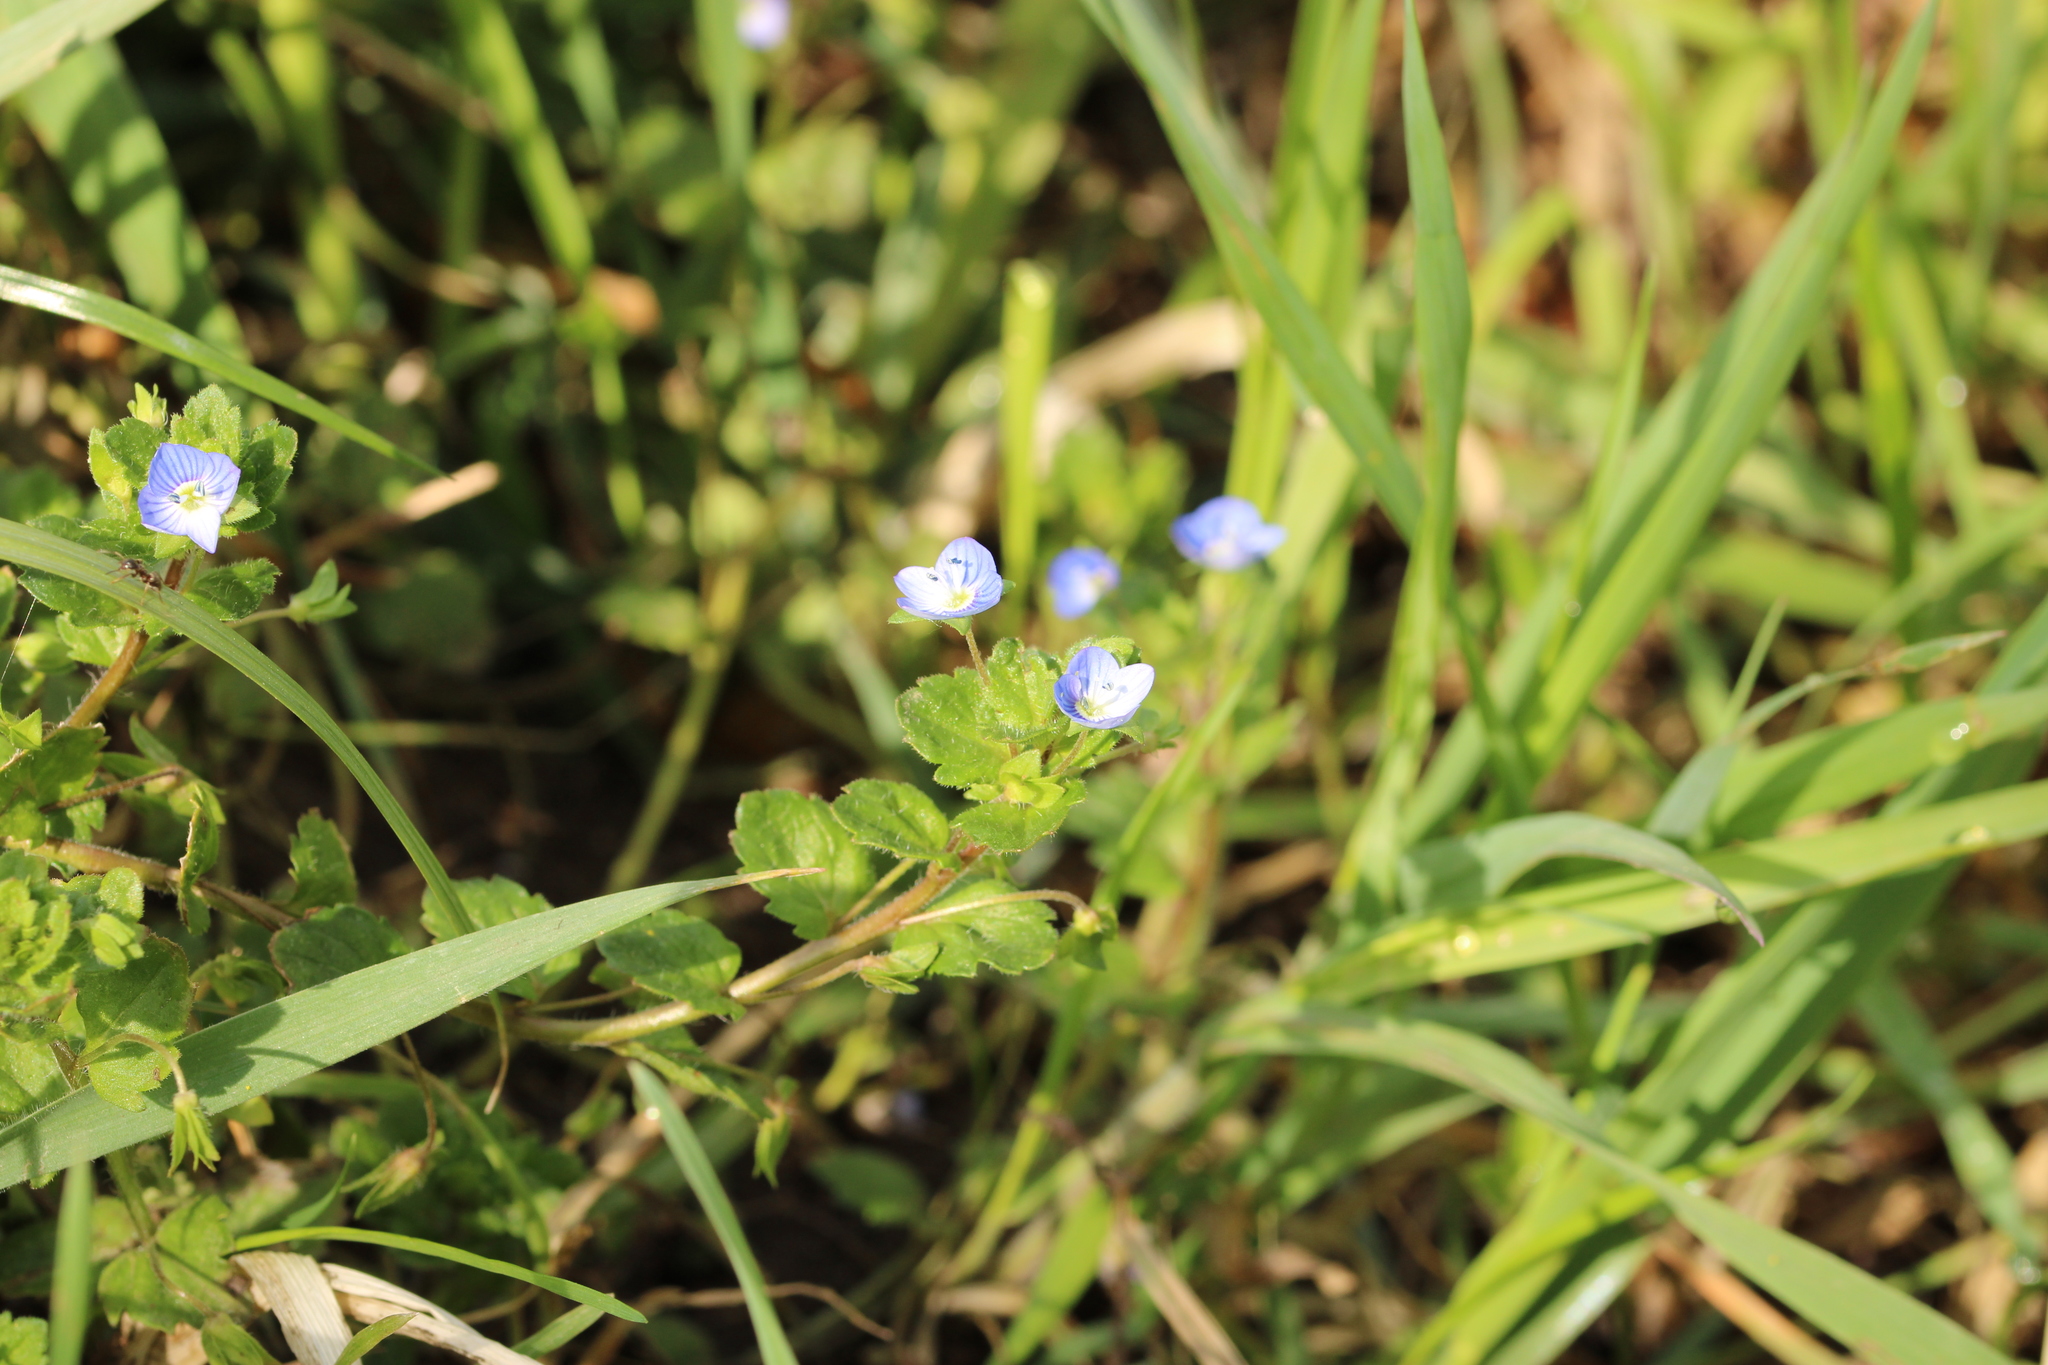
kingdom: Plantae
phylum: Tracheophyta
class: Magnoliopsida
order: Lamiales
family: Plantaginaceae
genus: Veronica
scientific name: Veronica persica
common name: Common field-speedwell
